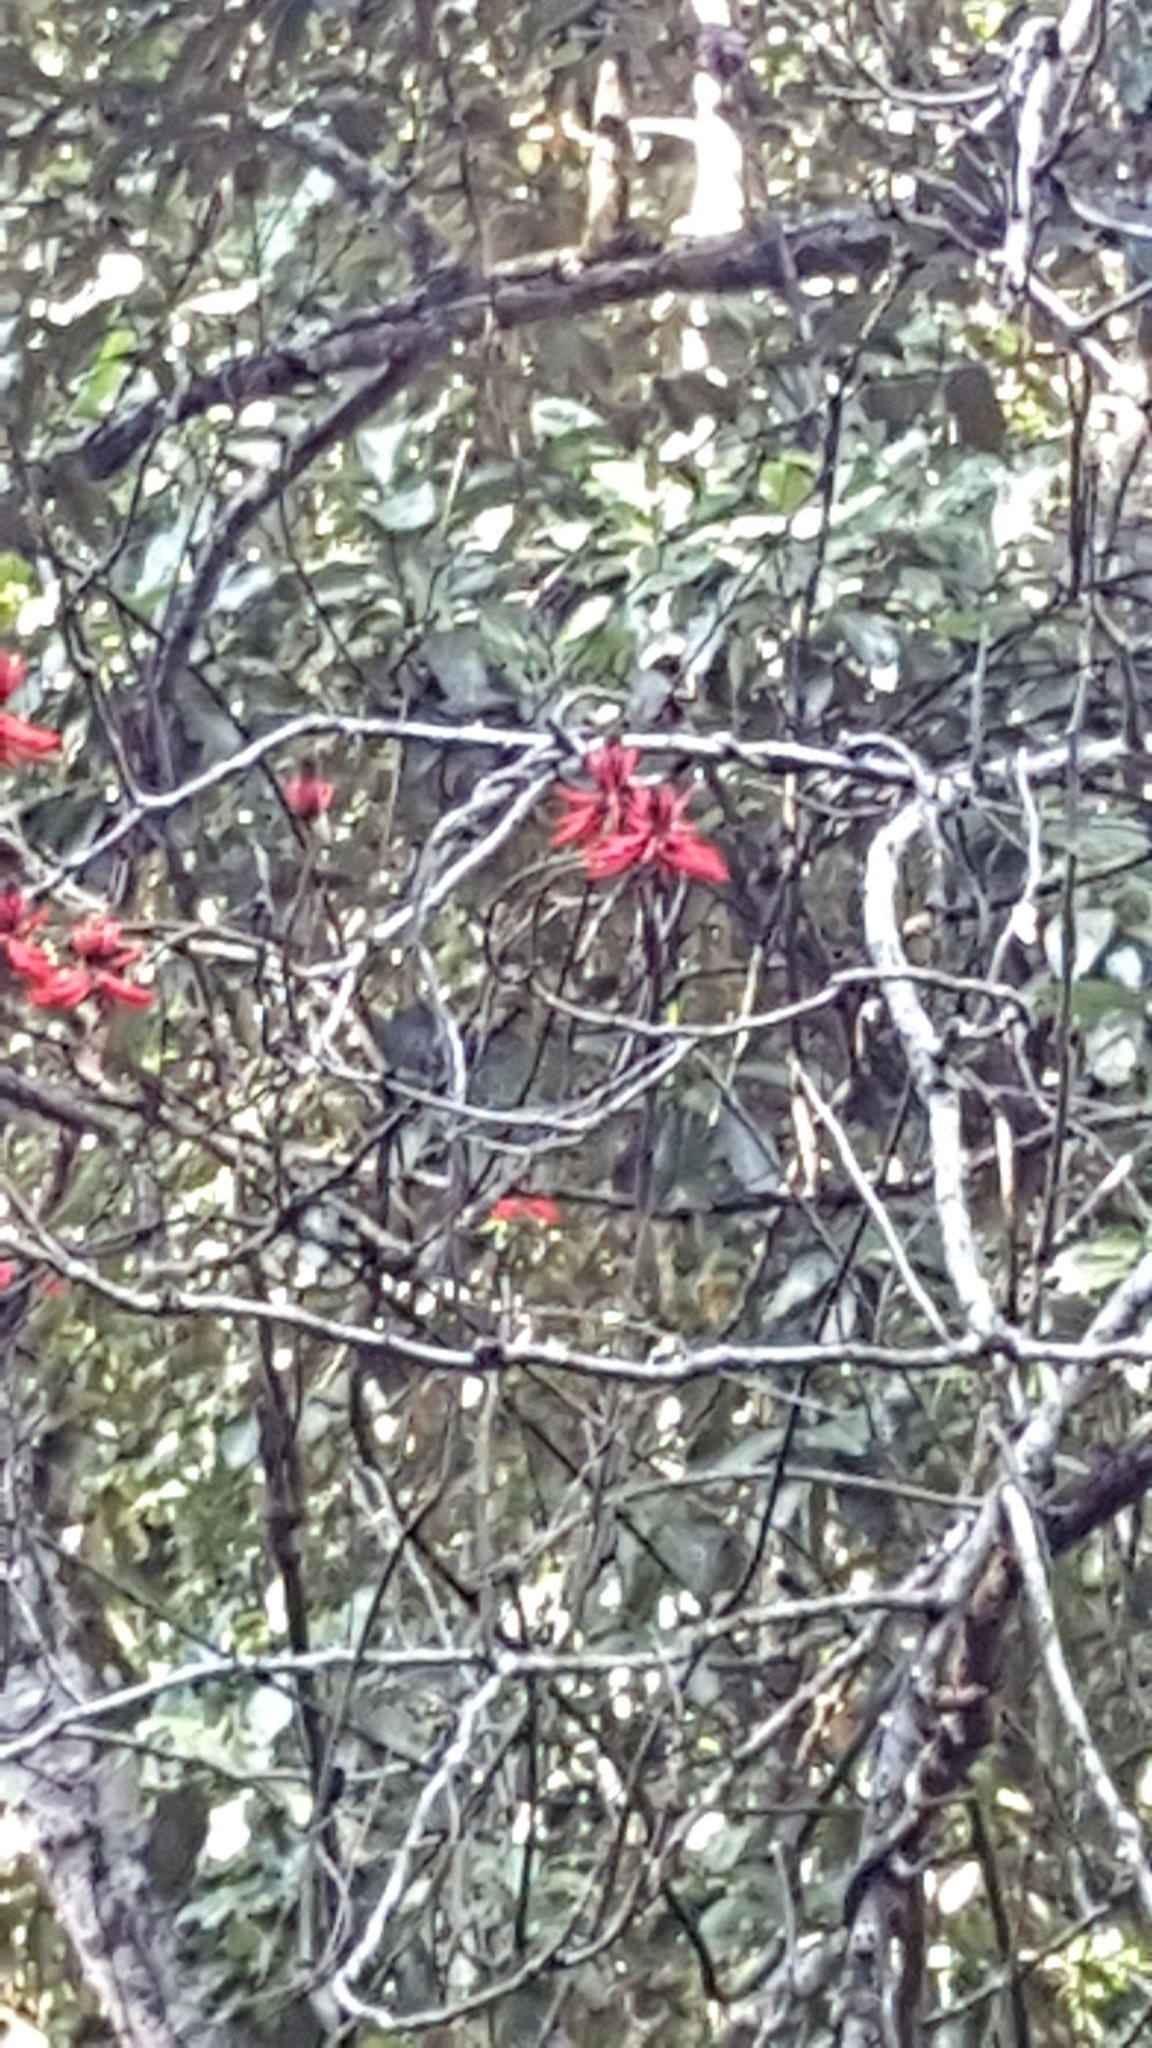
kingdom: Plantae
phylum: Tracheophyta
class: Magnoliopsida
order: Fabales
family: Fabaceae
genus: Erythrina
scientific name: Erythrina speciosa
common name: Coral tree
